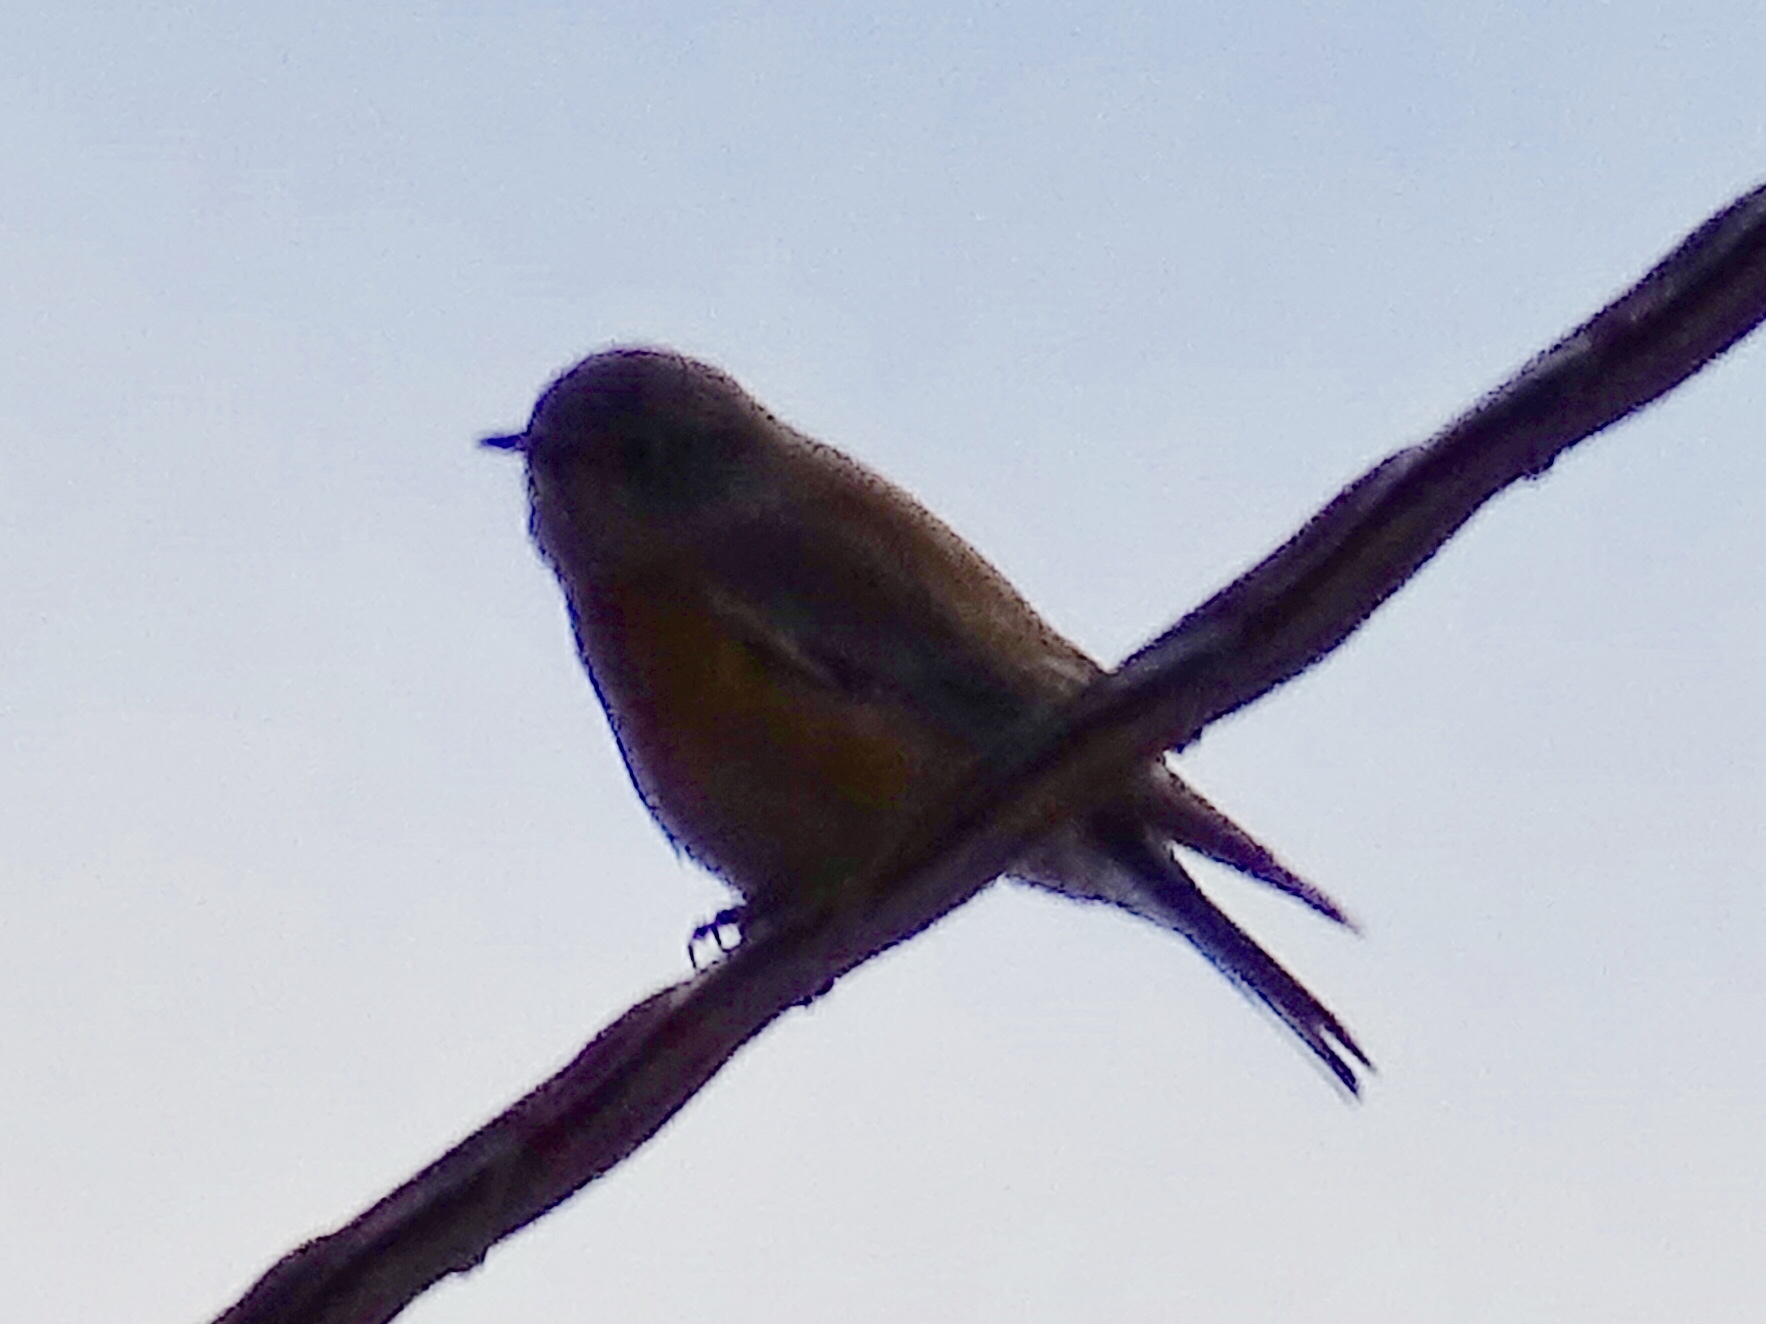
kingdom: Animalia
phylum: Chordata
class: Aves
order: Passeriformes
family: Turdidae
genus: Sialia
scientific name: Sialia mexicana
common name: Western bluebird
